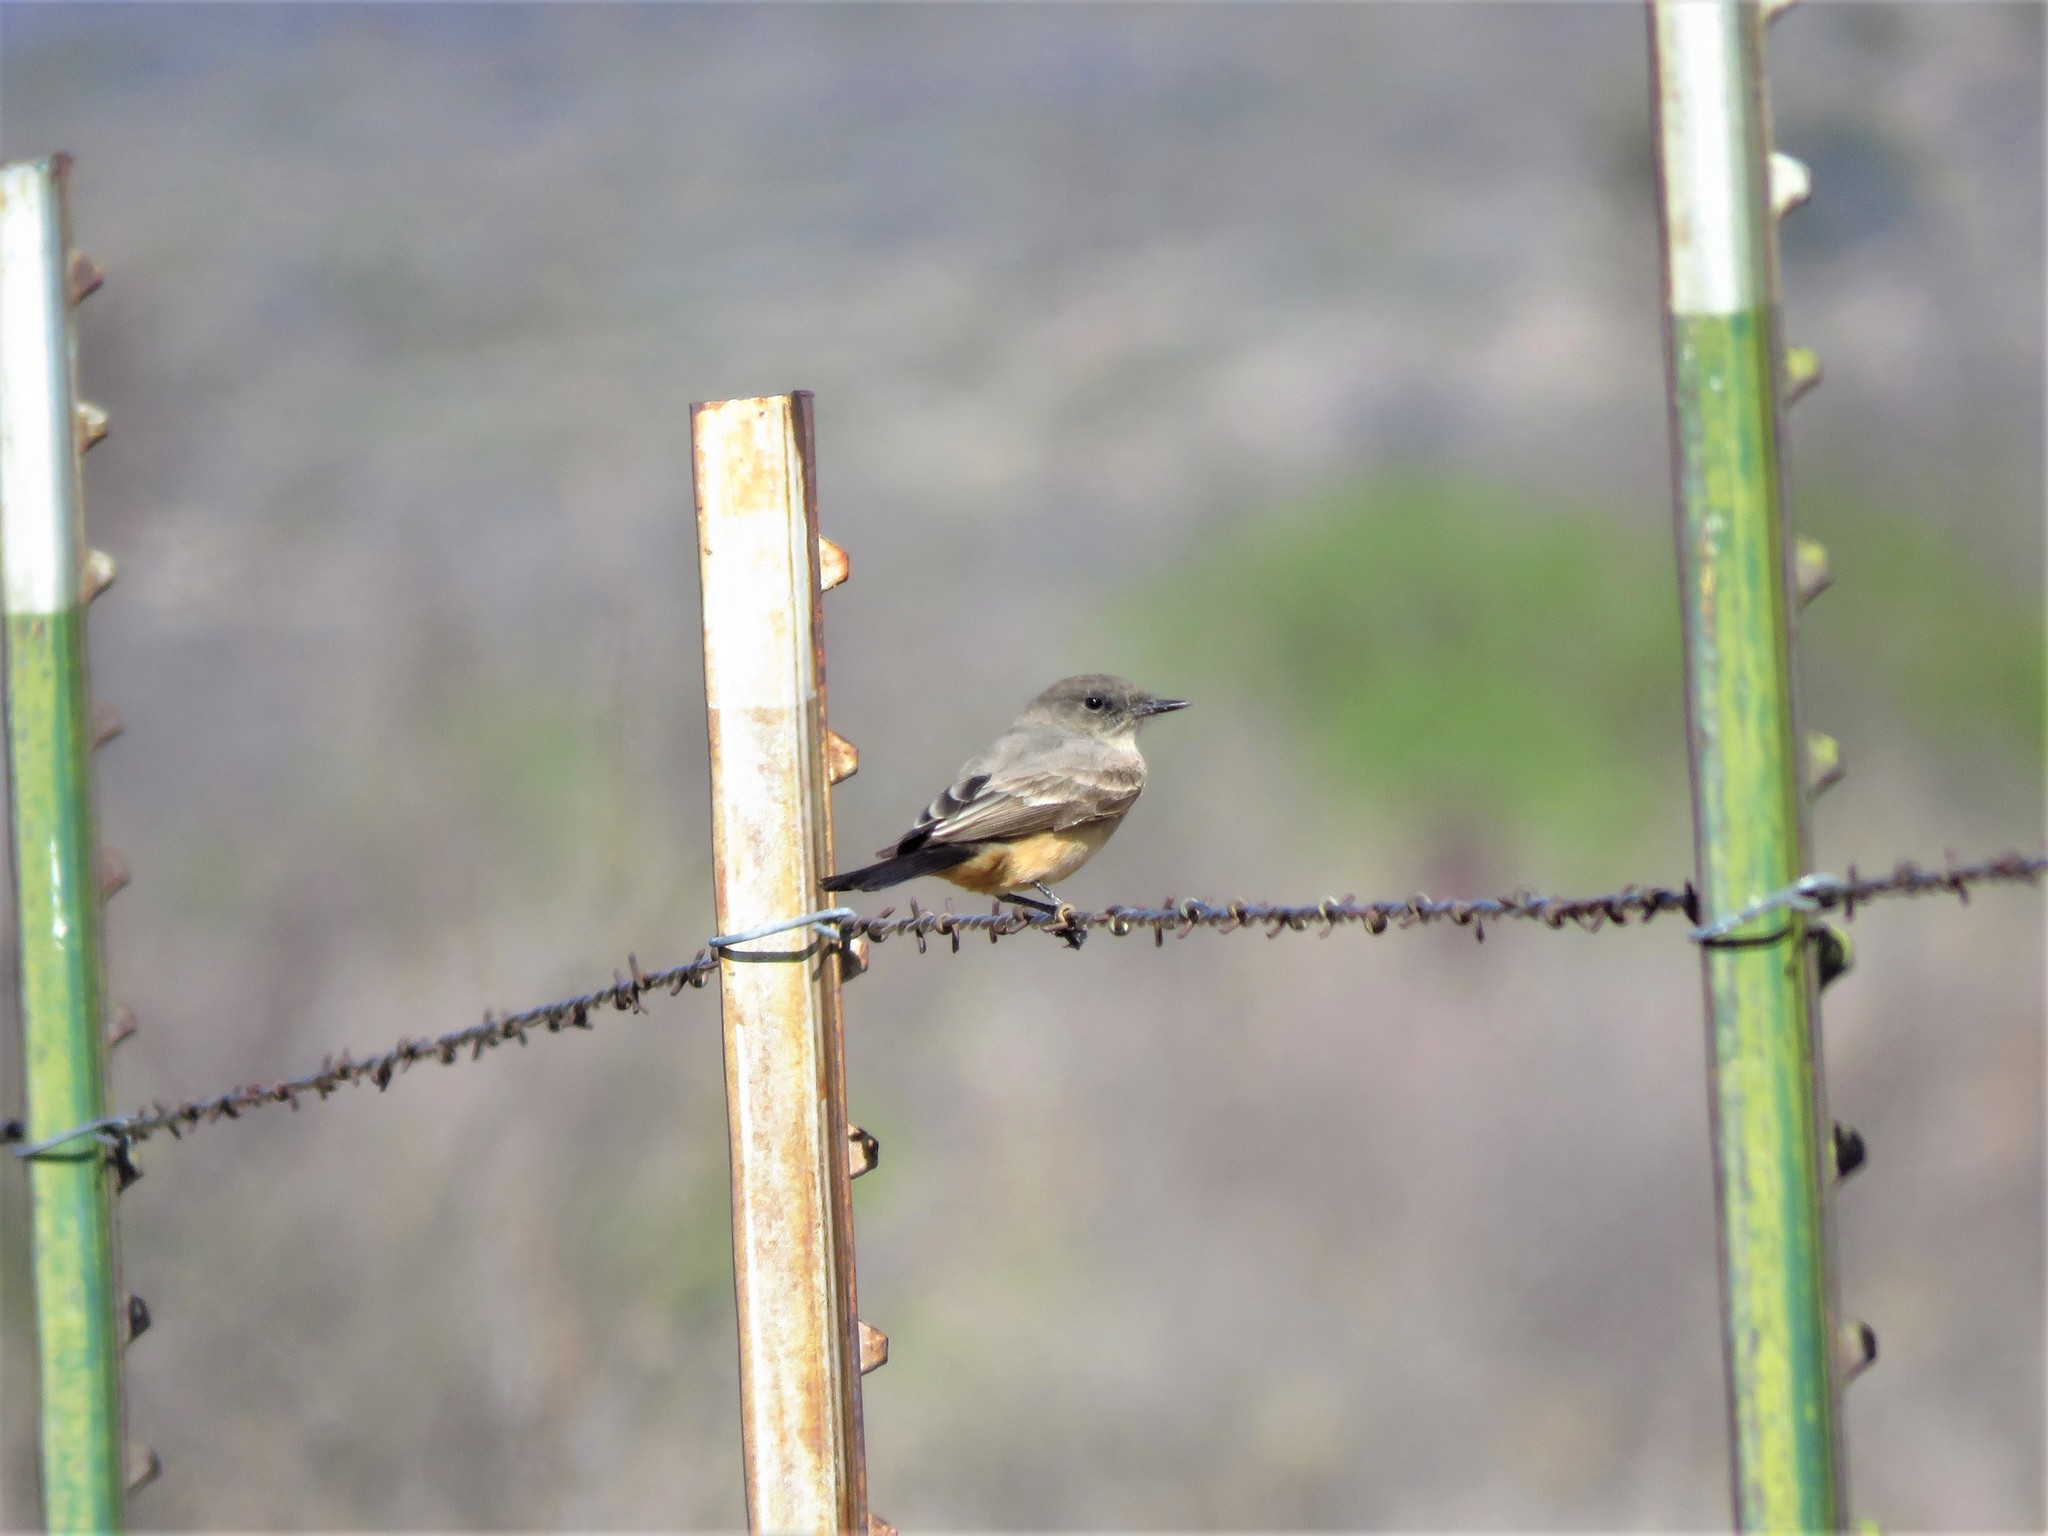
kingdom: Animalia
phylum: Chordata
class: Aves
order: Passeriformes
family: Tyrannidae
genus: Sayornis
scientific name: Sayornis saya
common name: Say's phoebe
